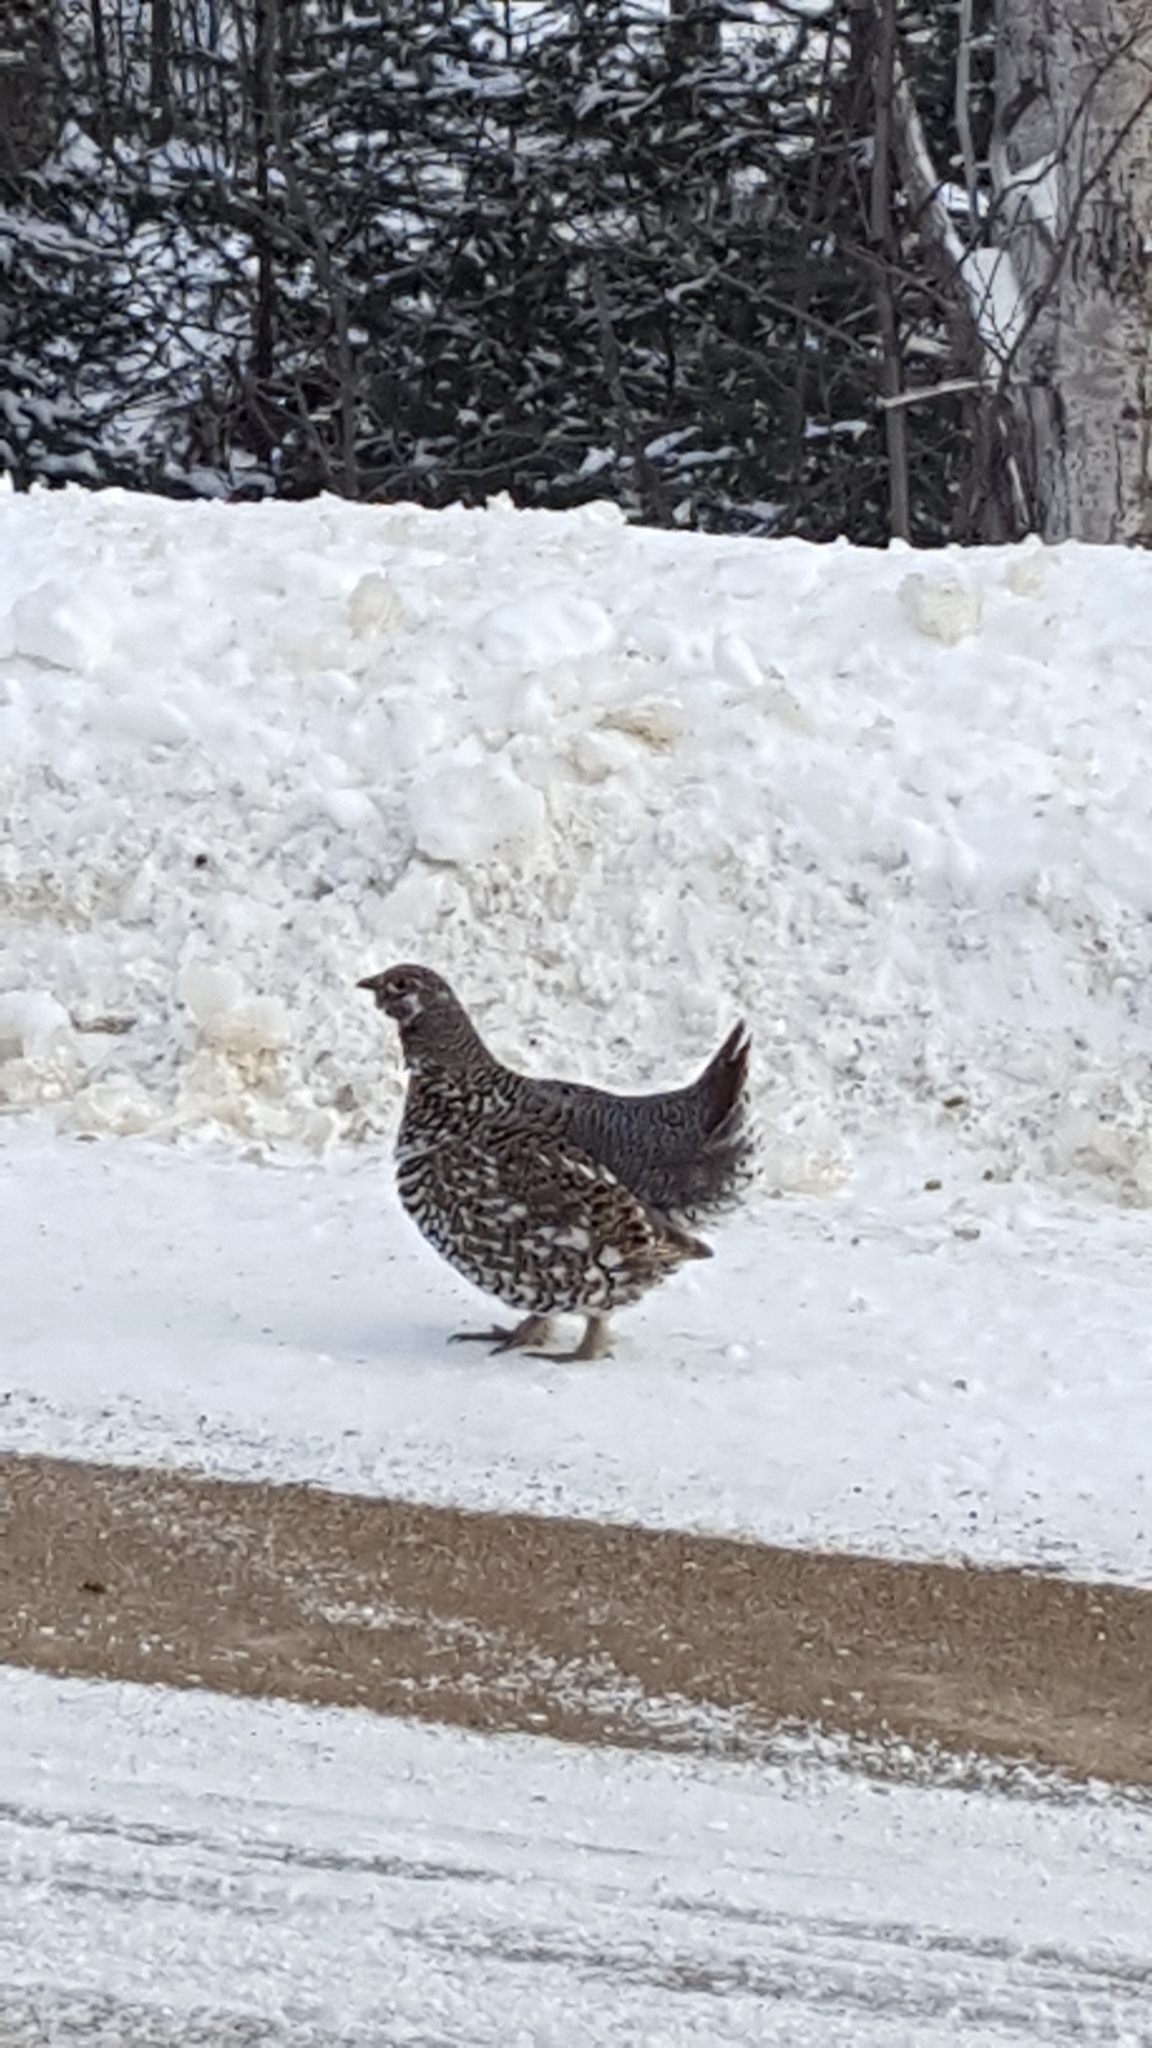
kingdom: Animalia
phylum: Chordata
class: Aves
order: Galliformes
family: Phasianidae
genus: Canachites
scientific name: Canachites canadensis
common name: Spruce grouse
